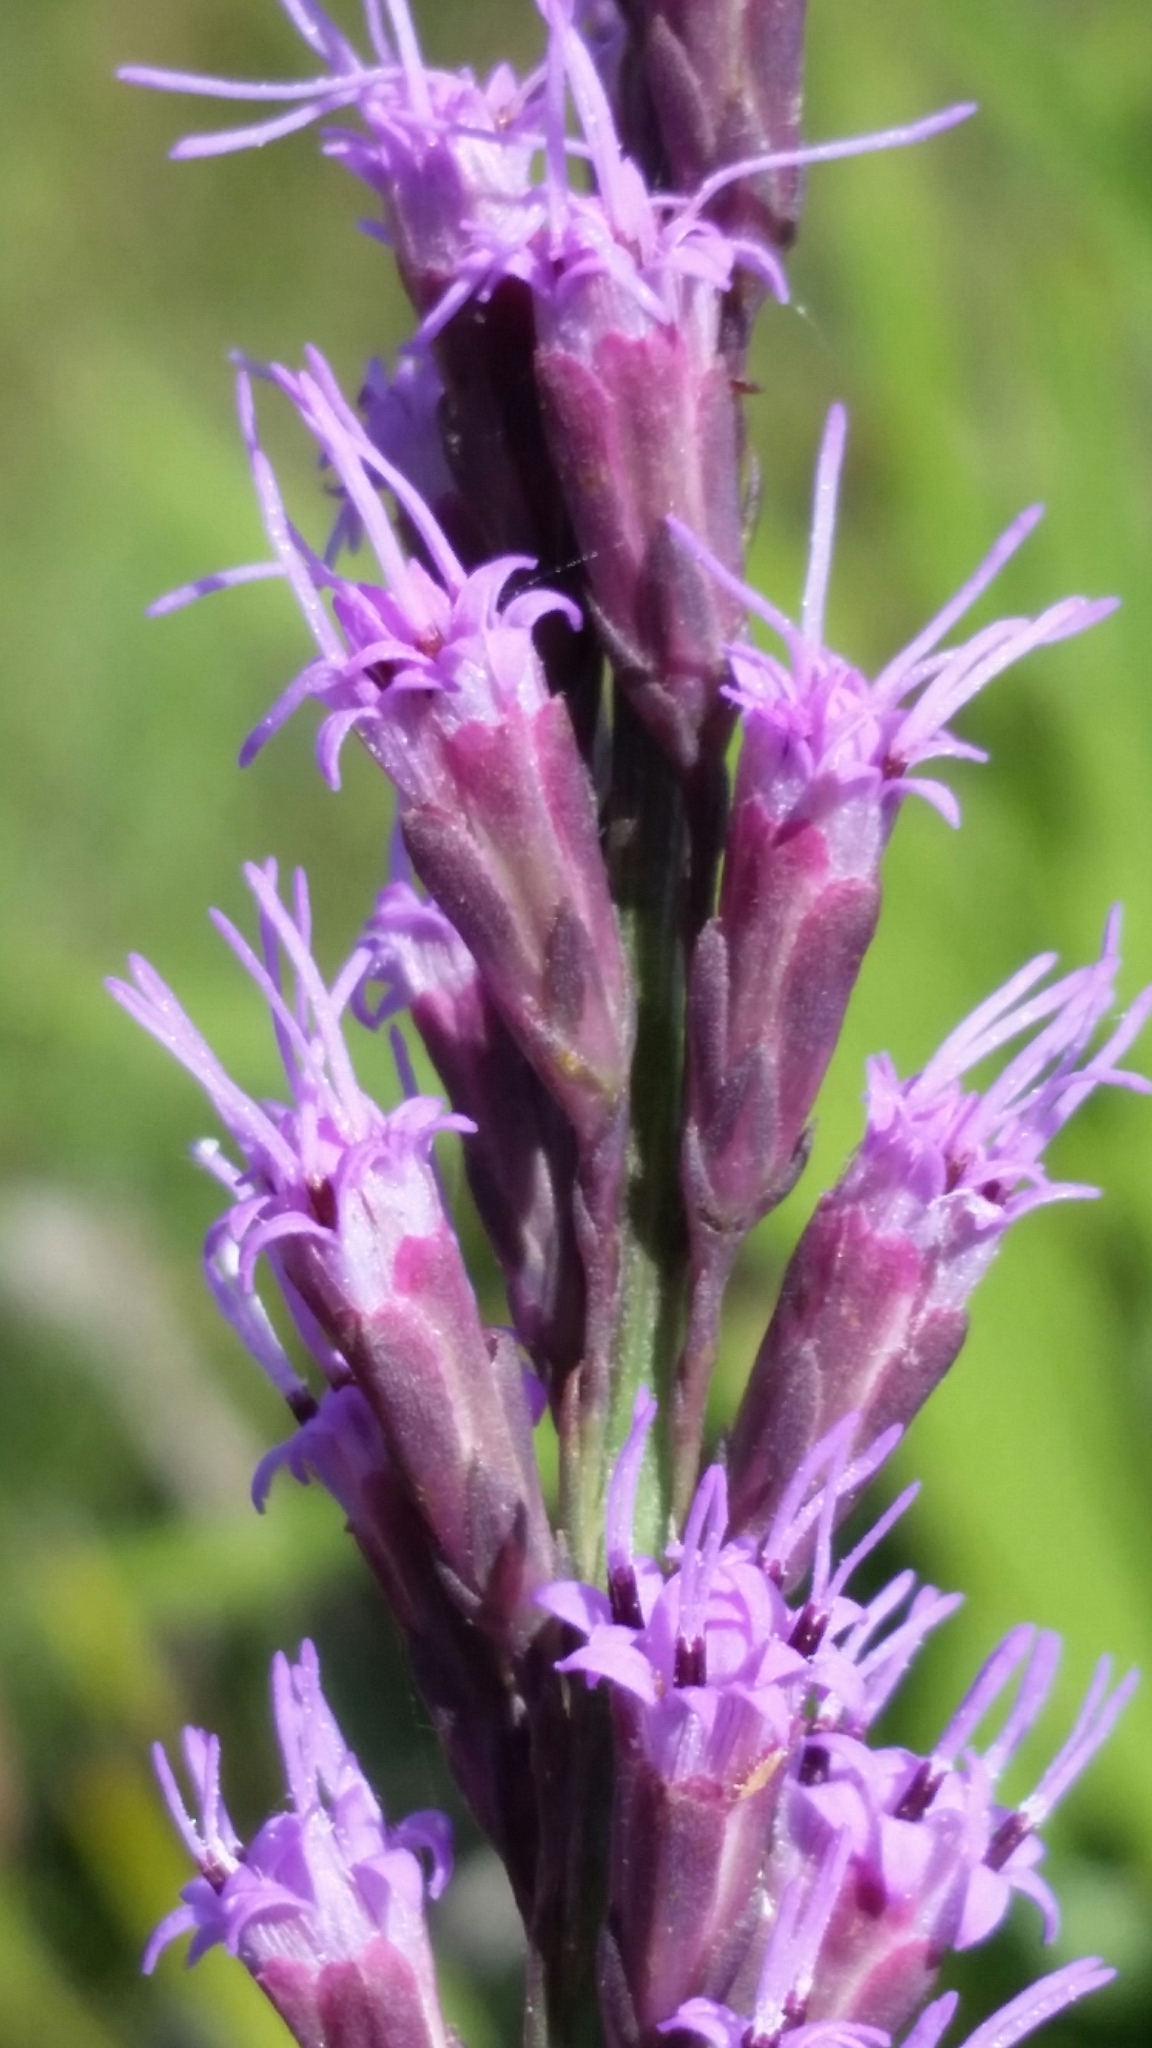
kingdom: Plantae
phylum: Tracheophyta
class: Magnoliopsida
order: Asterales
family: Asteraceae
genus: Liatris
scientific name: Liatris quadriflora
